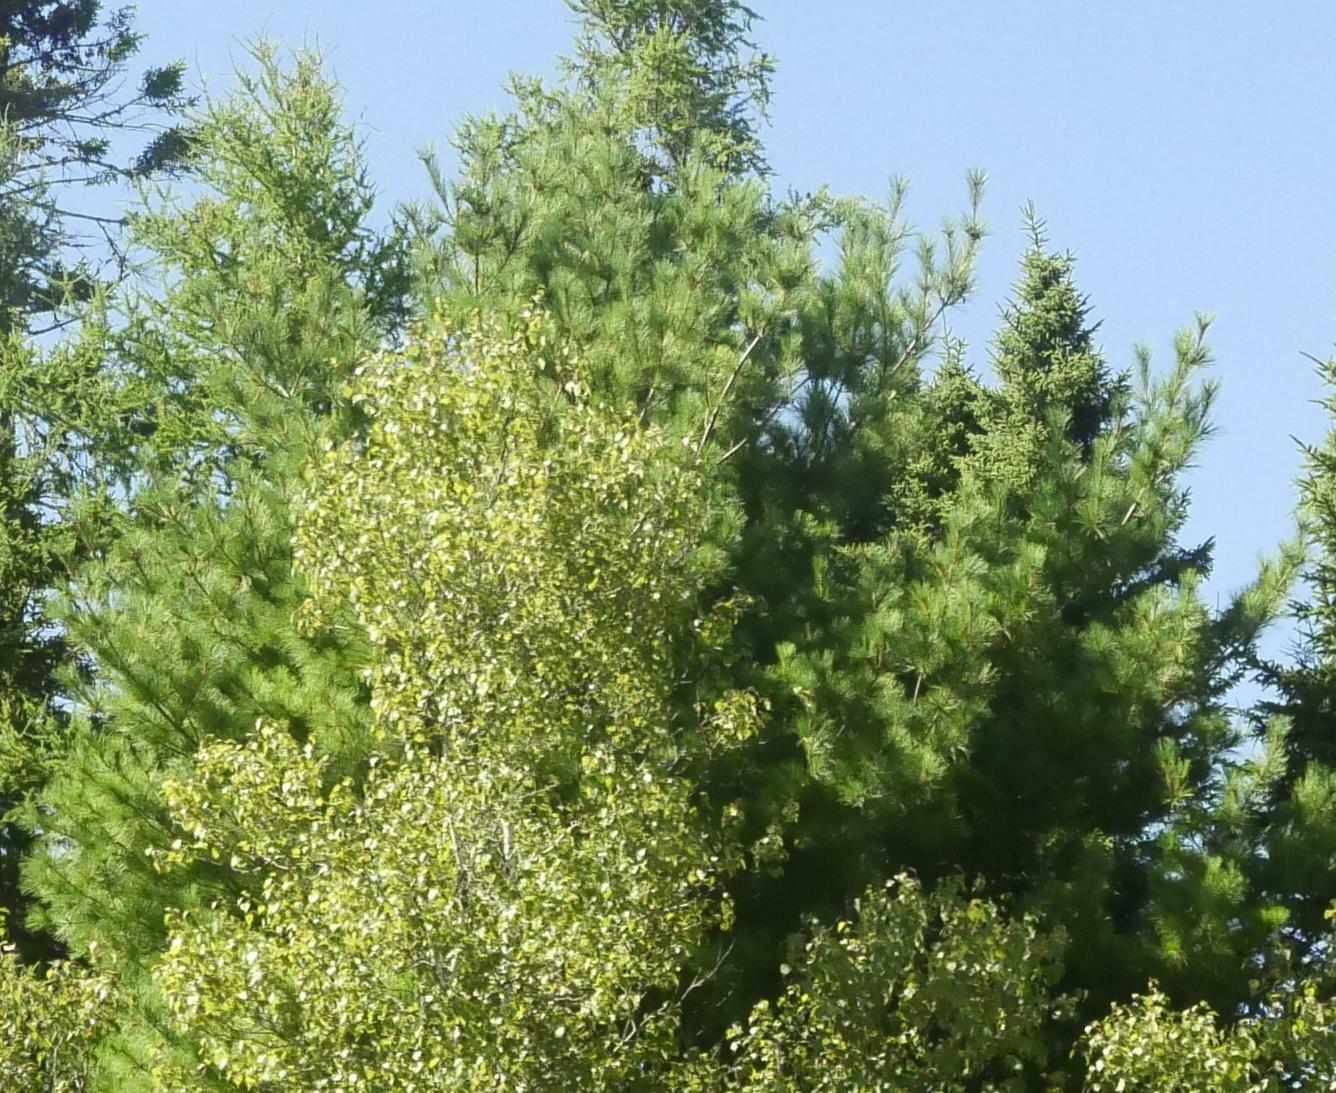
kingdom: Plantae
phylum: Tracheophyta
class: Pinopsida
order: Pinales
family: Pinaceae
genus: Pinus
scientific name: Pinus strobus
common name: Weymouth pine
